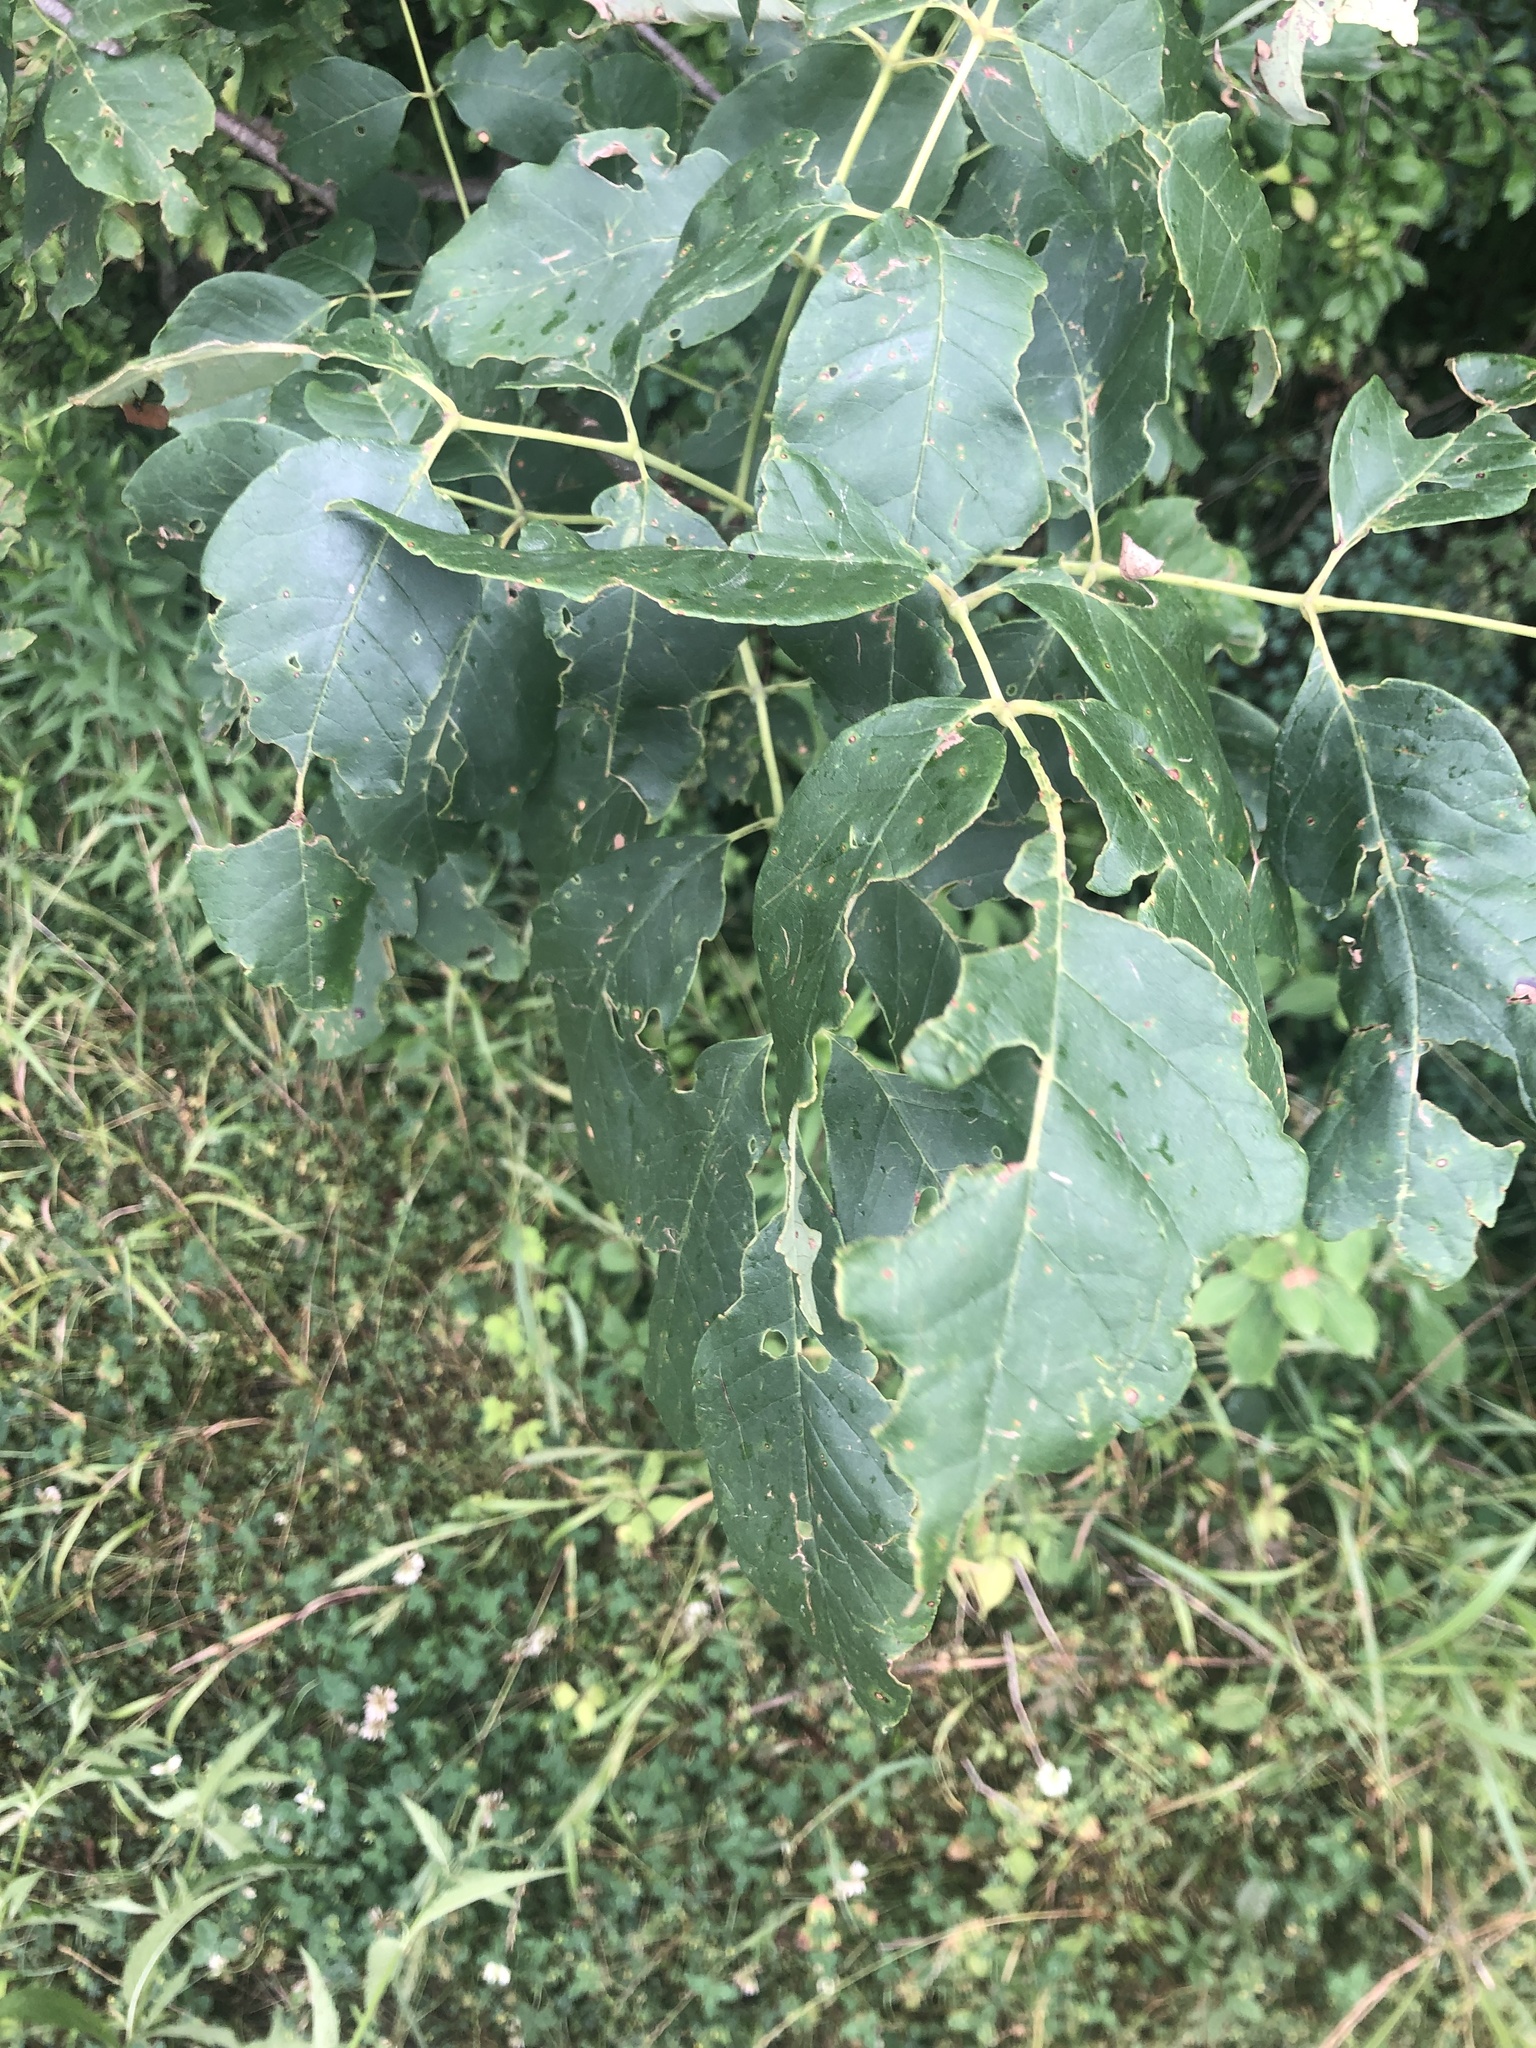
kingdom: Plantae
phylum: Tracheophyta
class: Magnoliopsida
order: Lamiales
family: Oleaceae
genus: Fraxinus
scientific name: Fraxinus profunda
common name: Pumpkin ash
